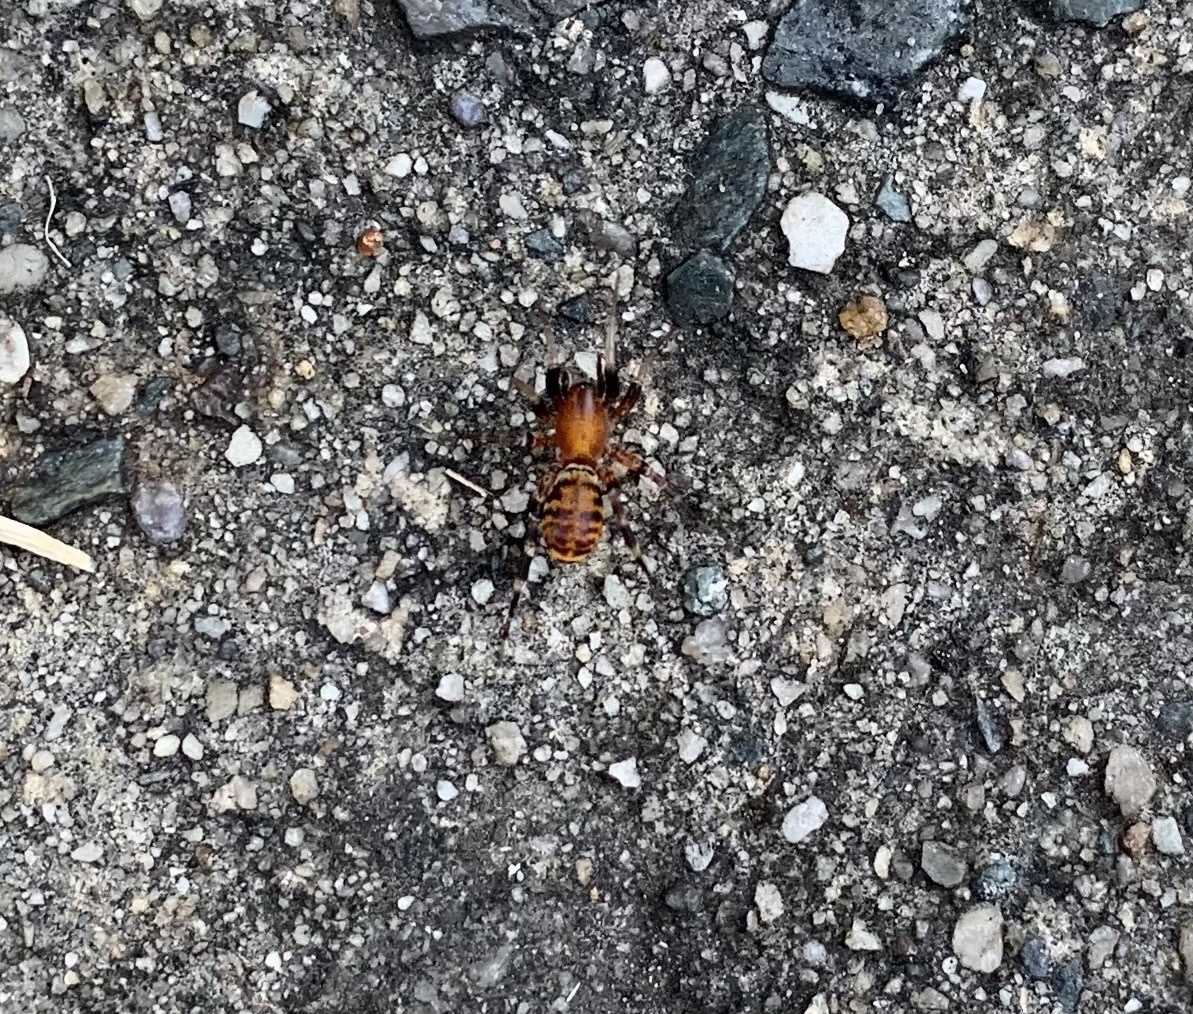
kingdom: Animalia
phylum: Arthropoda
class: Arachnida
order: Araneae
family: Corinnidae
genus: Castianeira
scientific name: Castianeira amoena
